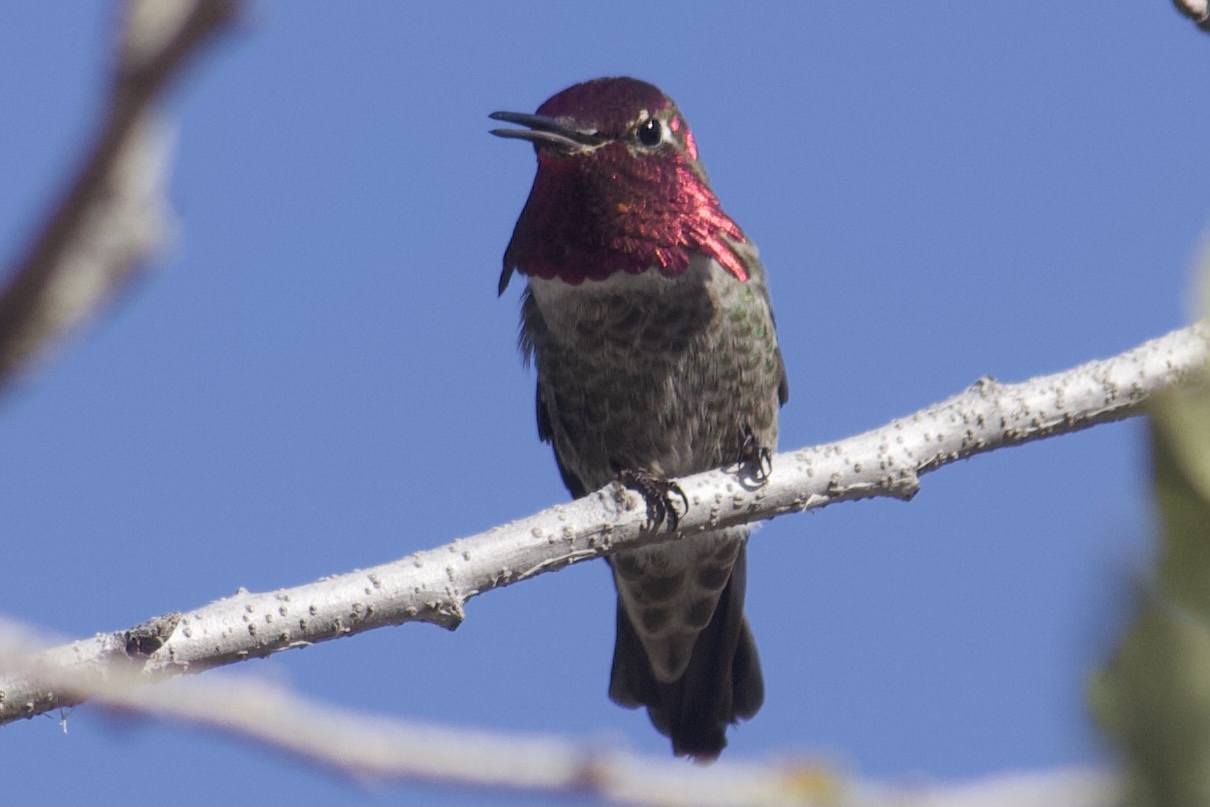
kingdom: Animalia
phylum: Chordata
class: Aves
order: Apodiformes
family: Trochilidae
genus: Calypte
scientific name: Calypte anna
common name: Anna's hummingbird
